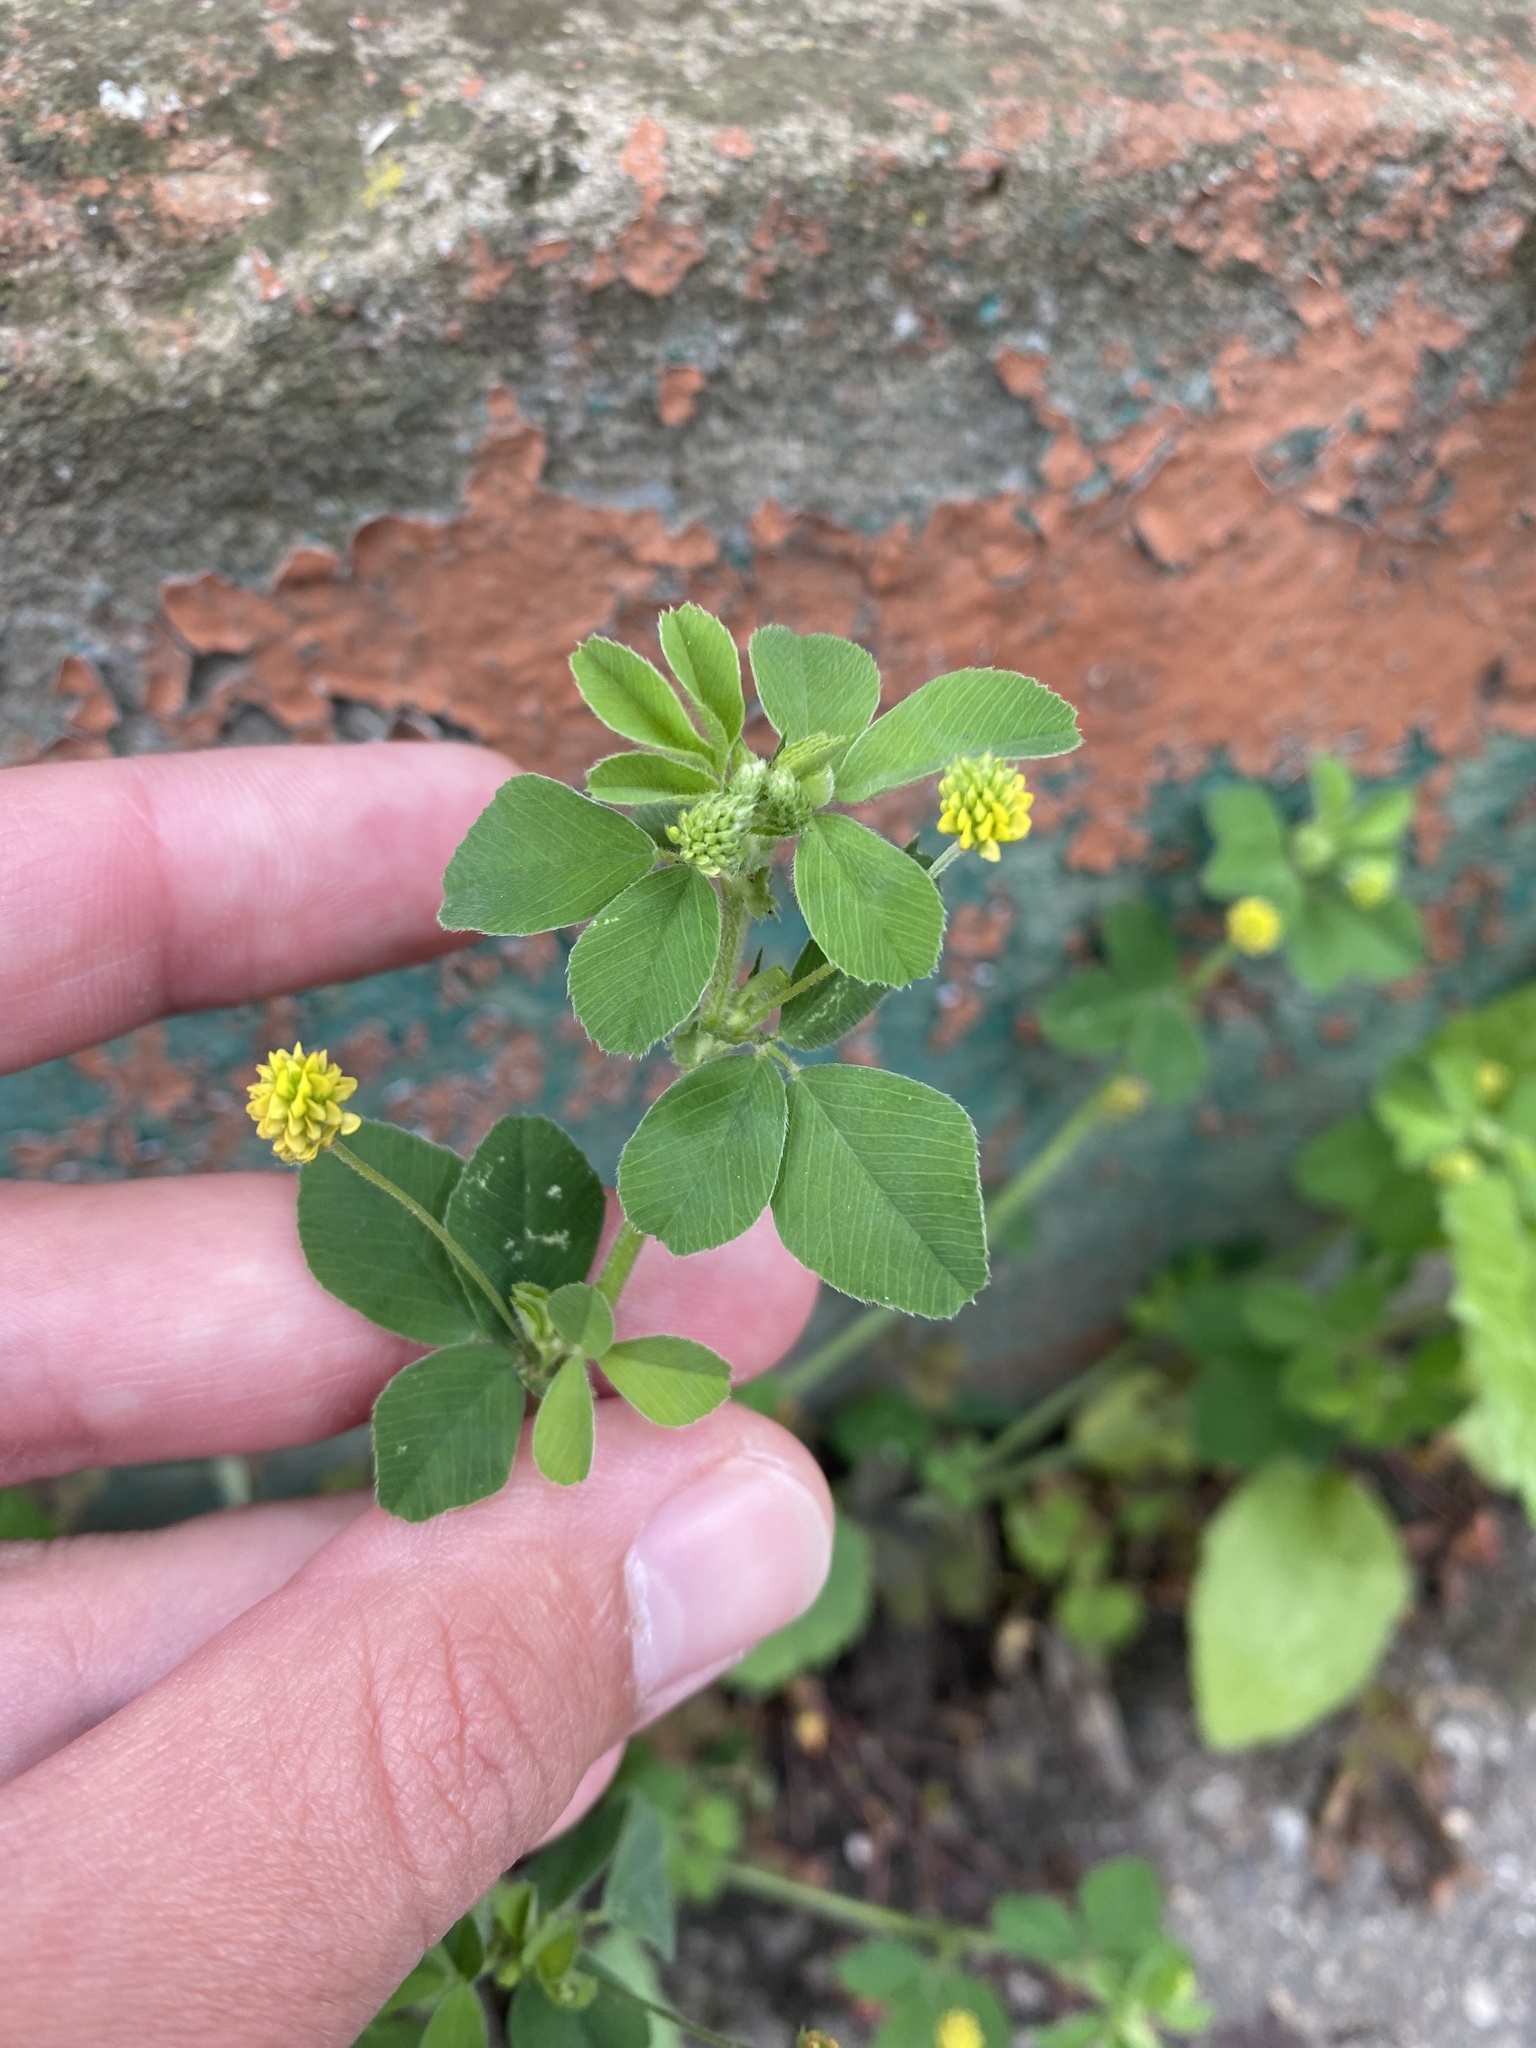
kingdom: Plantae
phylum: Tracheophyta
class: Magnoliopsida
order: Fabales
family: Fabaceae
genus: Medicago
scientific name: Medicago lupulina
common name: Black medick
